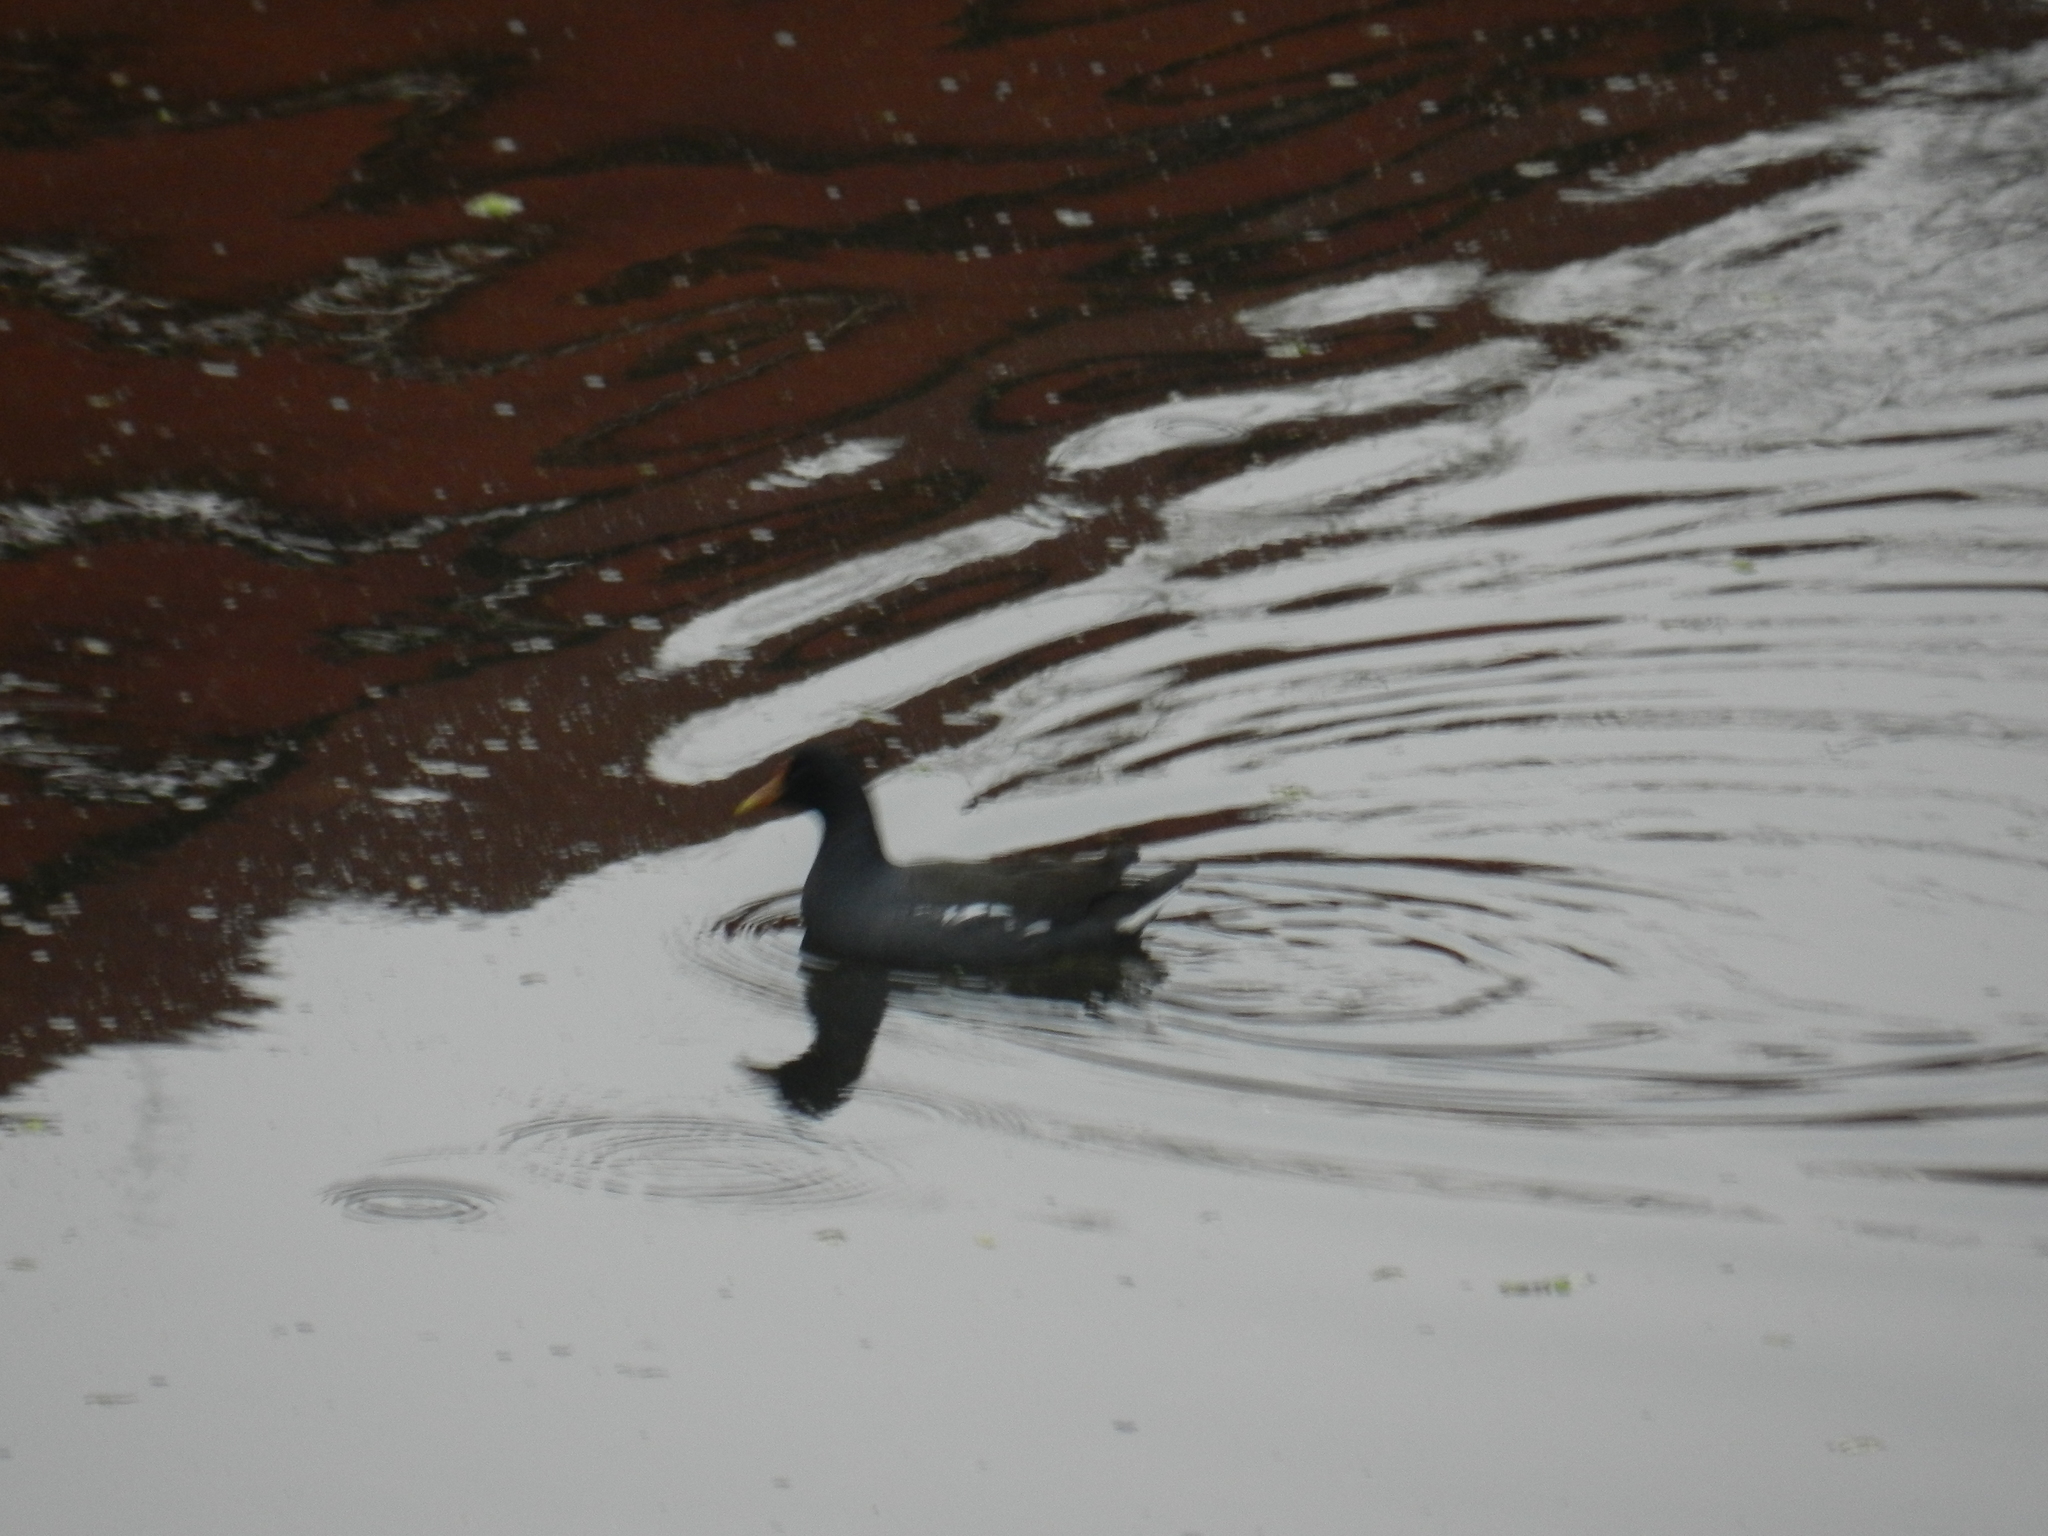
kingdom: Animalia
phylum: Chordata
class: Aves
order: Gruiformes
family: Rallidae
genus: Gallinula
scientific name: Gallinula chloropus
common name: Common moorhen
